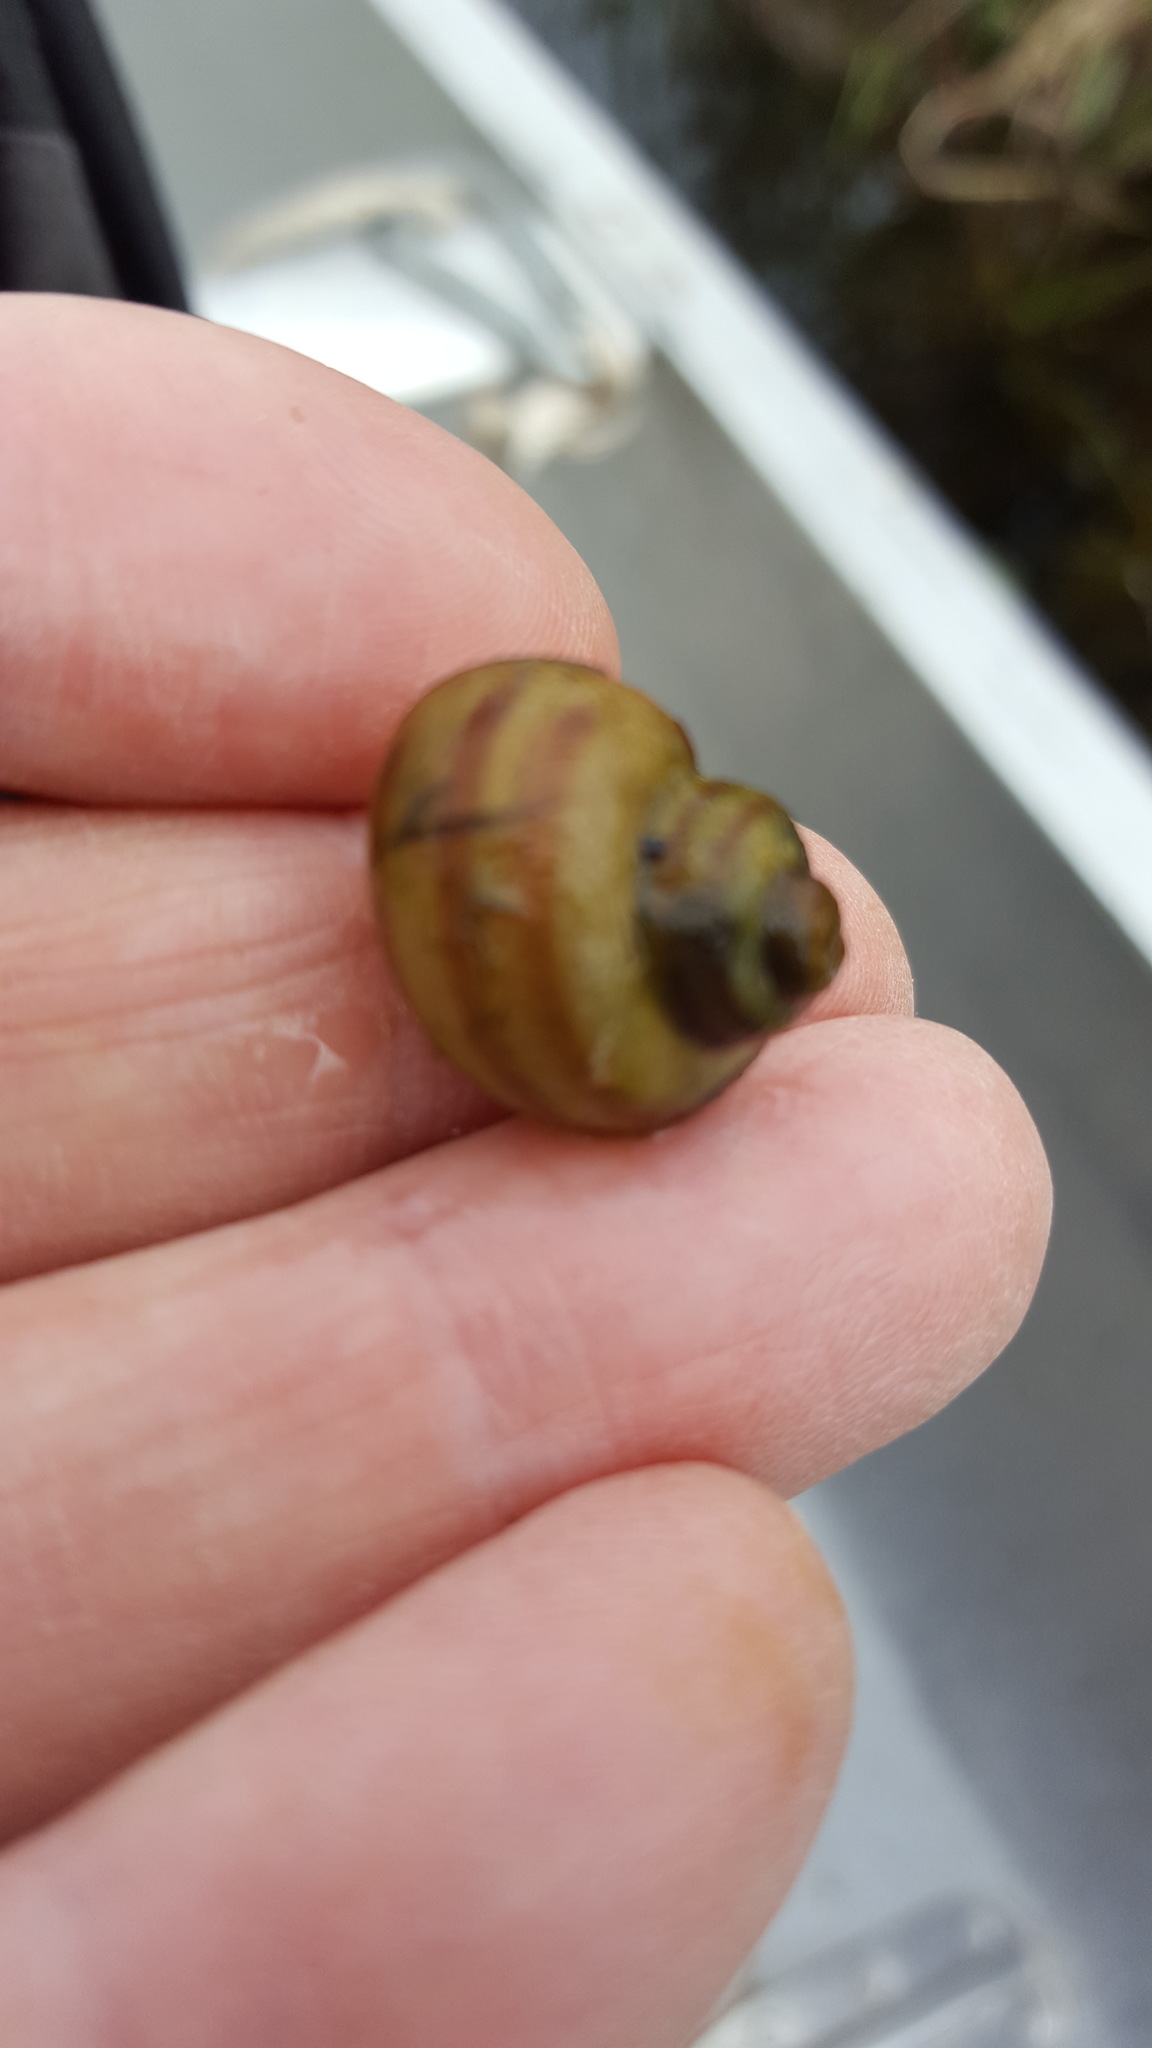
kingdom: Animalia
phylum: Mollusca
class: Gastropoda
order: Architaenioglossa
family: Viviparidae
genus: Callinina
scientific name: Callinina georgiana
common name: Banded mystery snail
